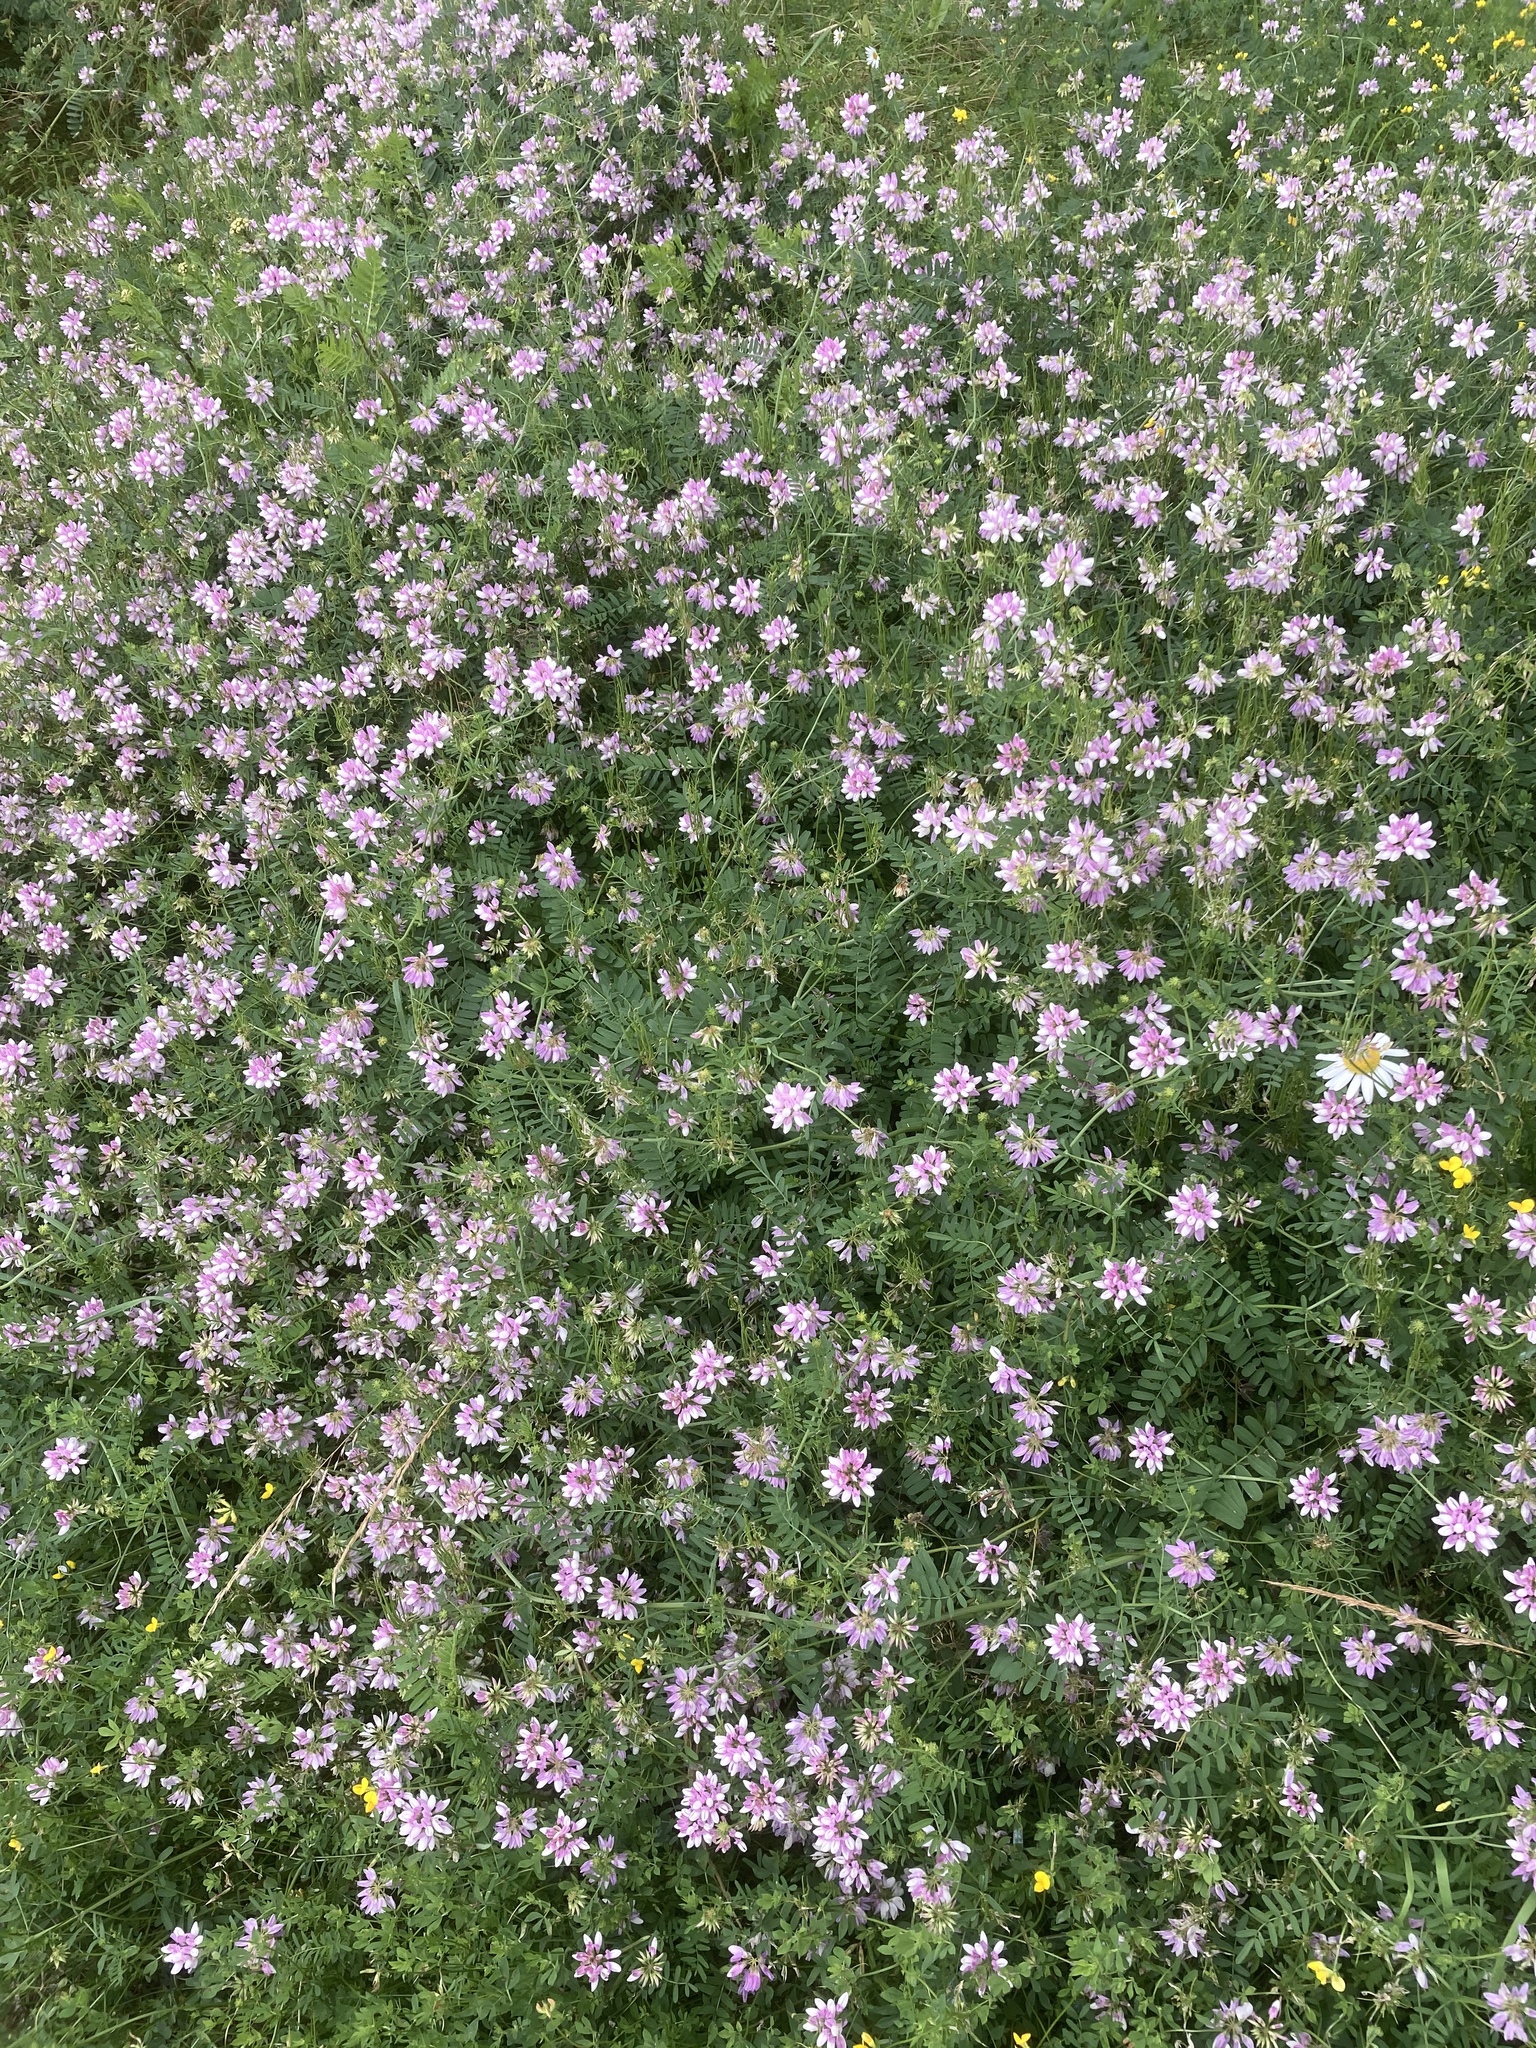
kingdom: Plantae
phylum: Tracheophyta
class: Magnoliopsida
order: Fabales
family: Fabaceae
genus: Coronilla
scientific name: Coronilla varia
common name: Crownvetch
